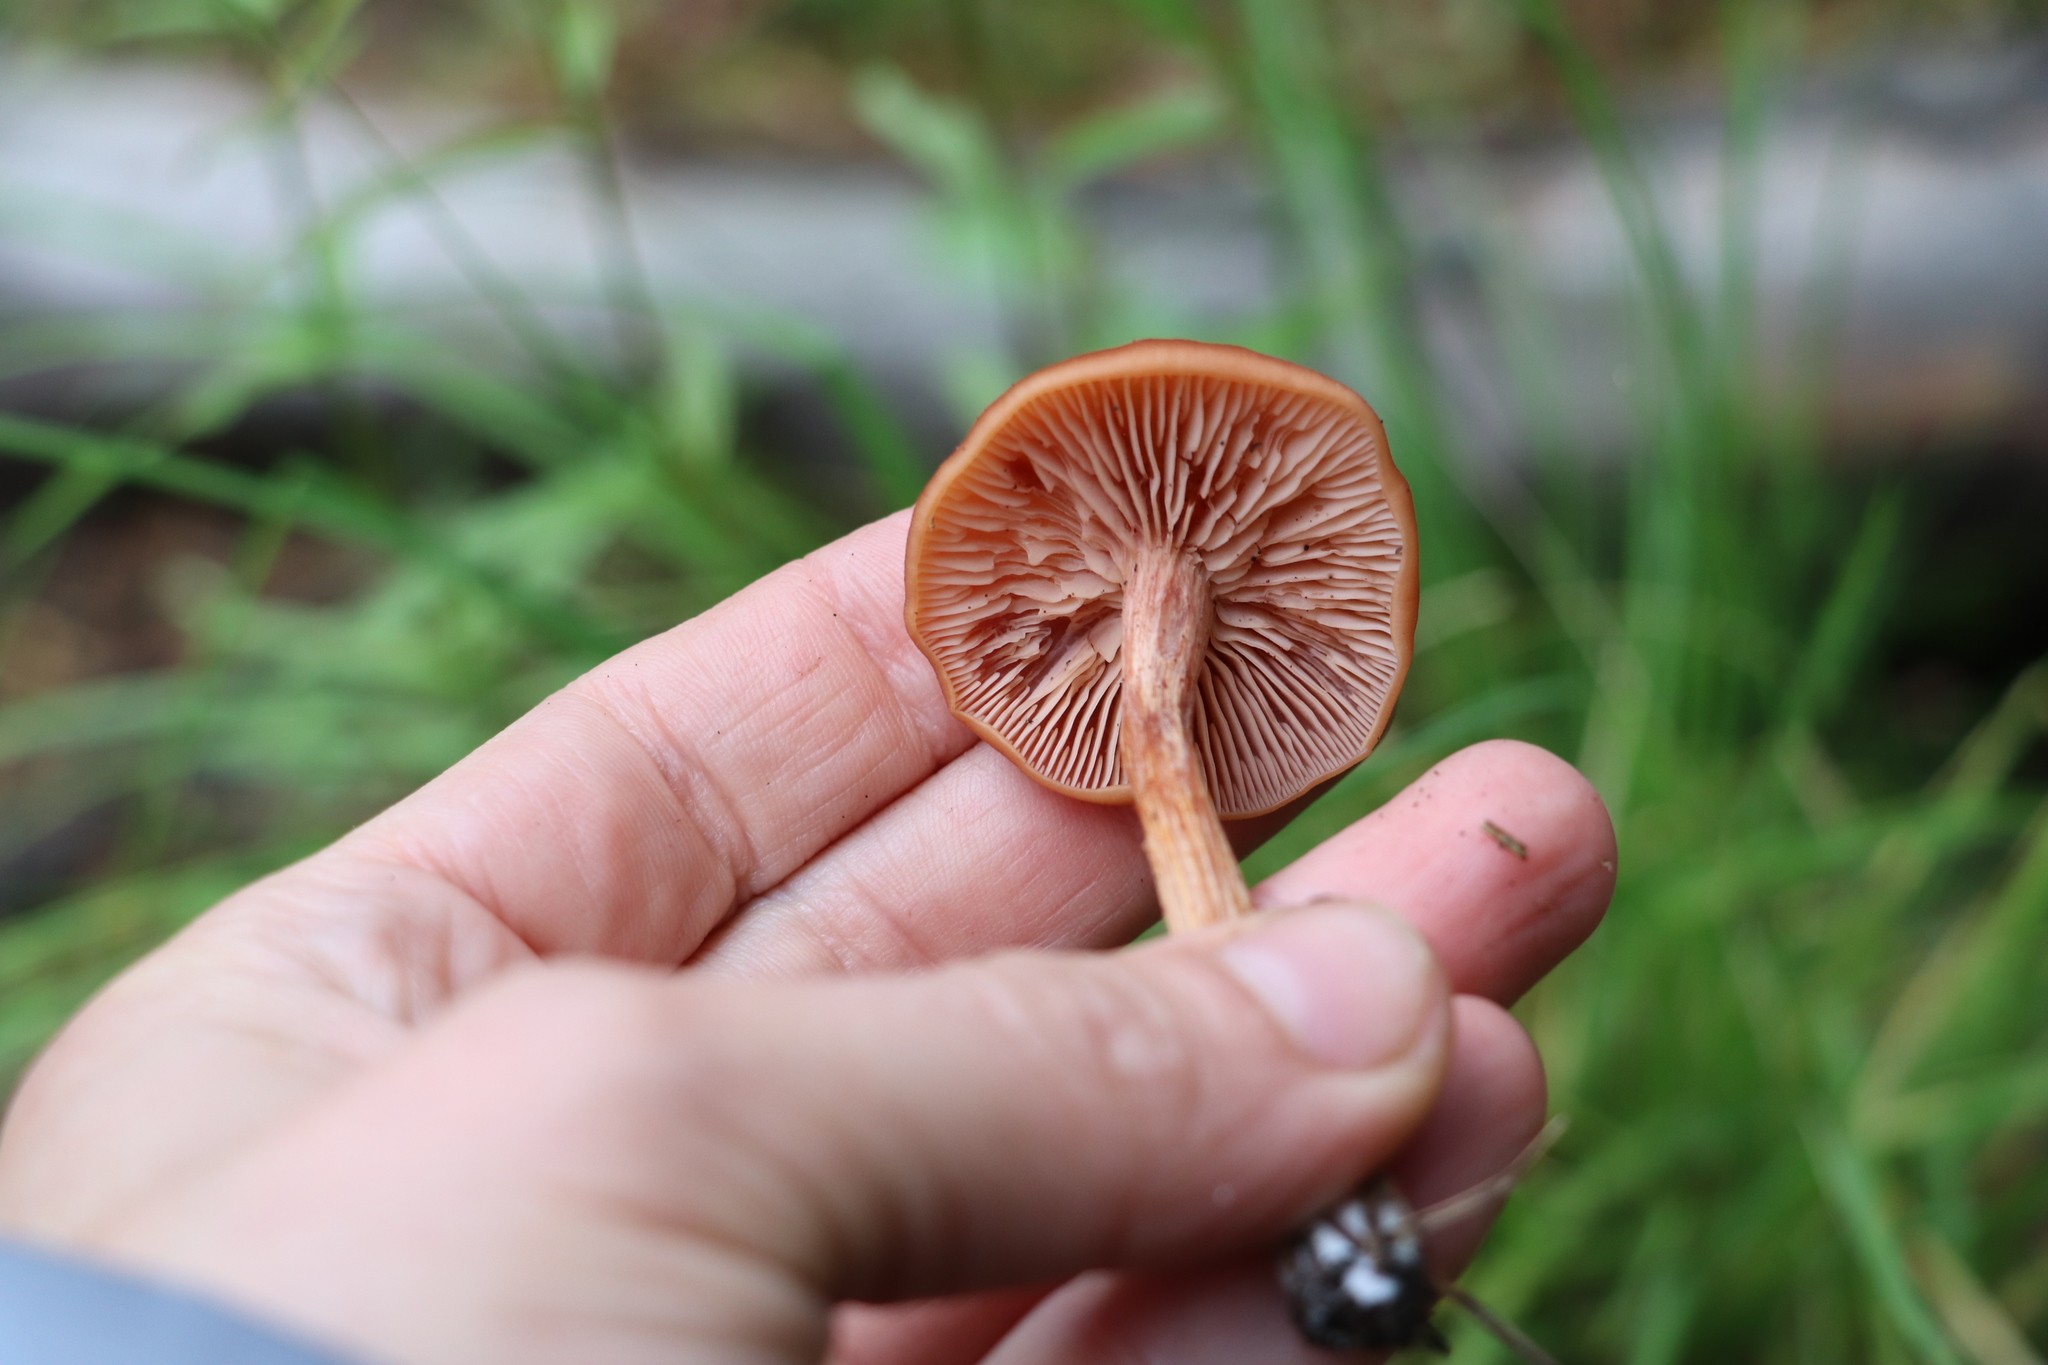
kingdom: Fungi
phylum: Basidiomycota
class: Agaricomycetes
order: Agaricales
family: Hydnangiaceae
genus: Laccaria
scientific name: Laccaria laccata
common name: Deceiver
